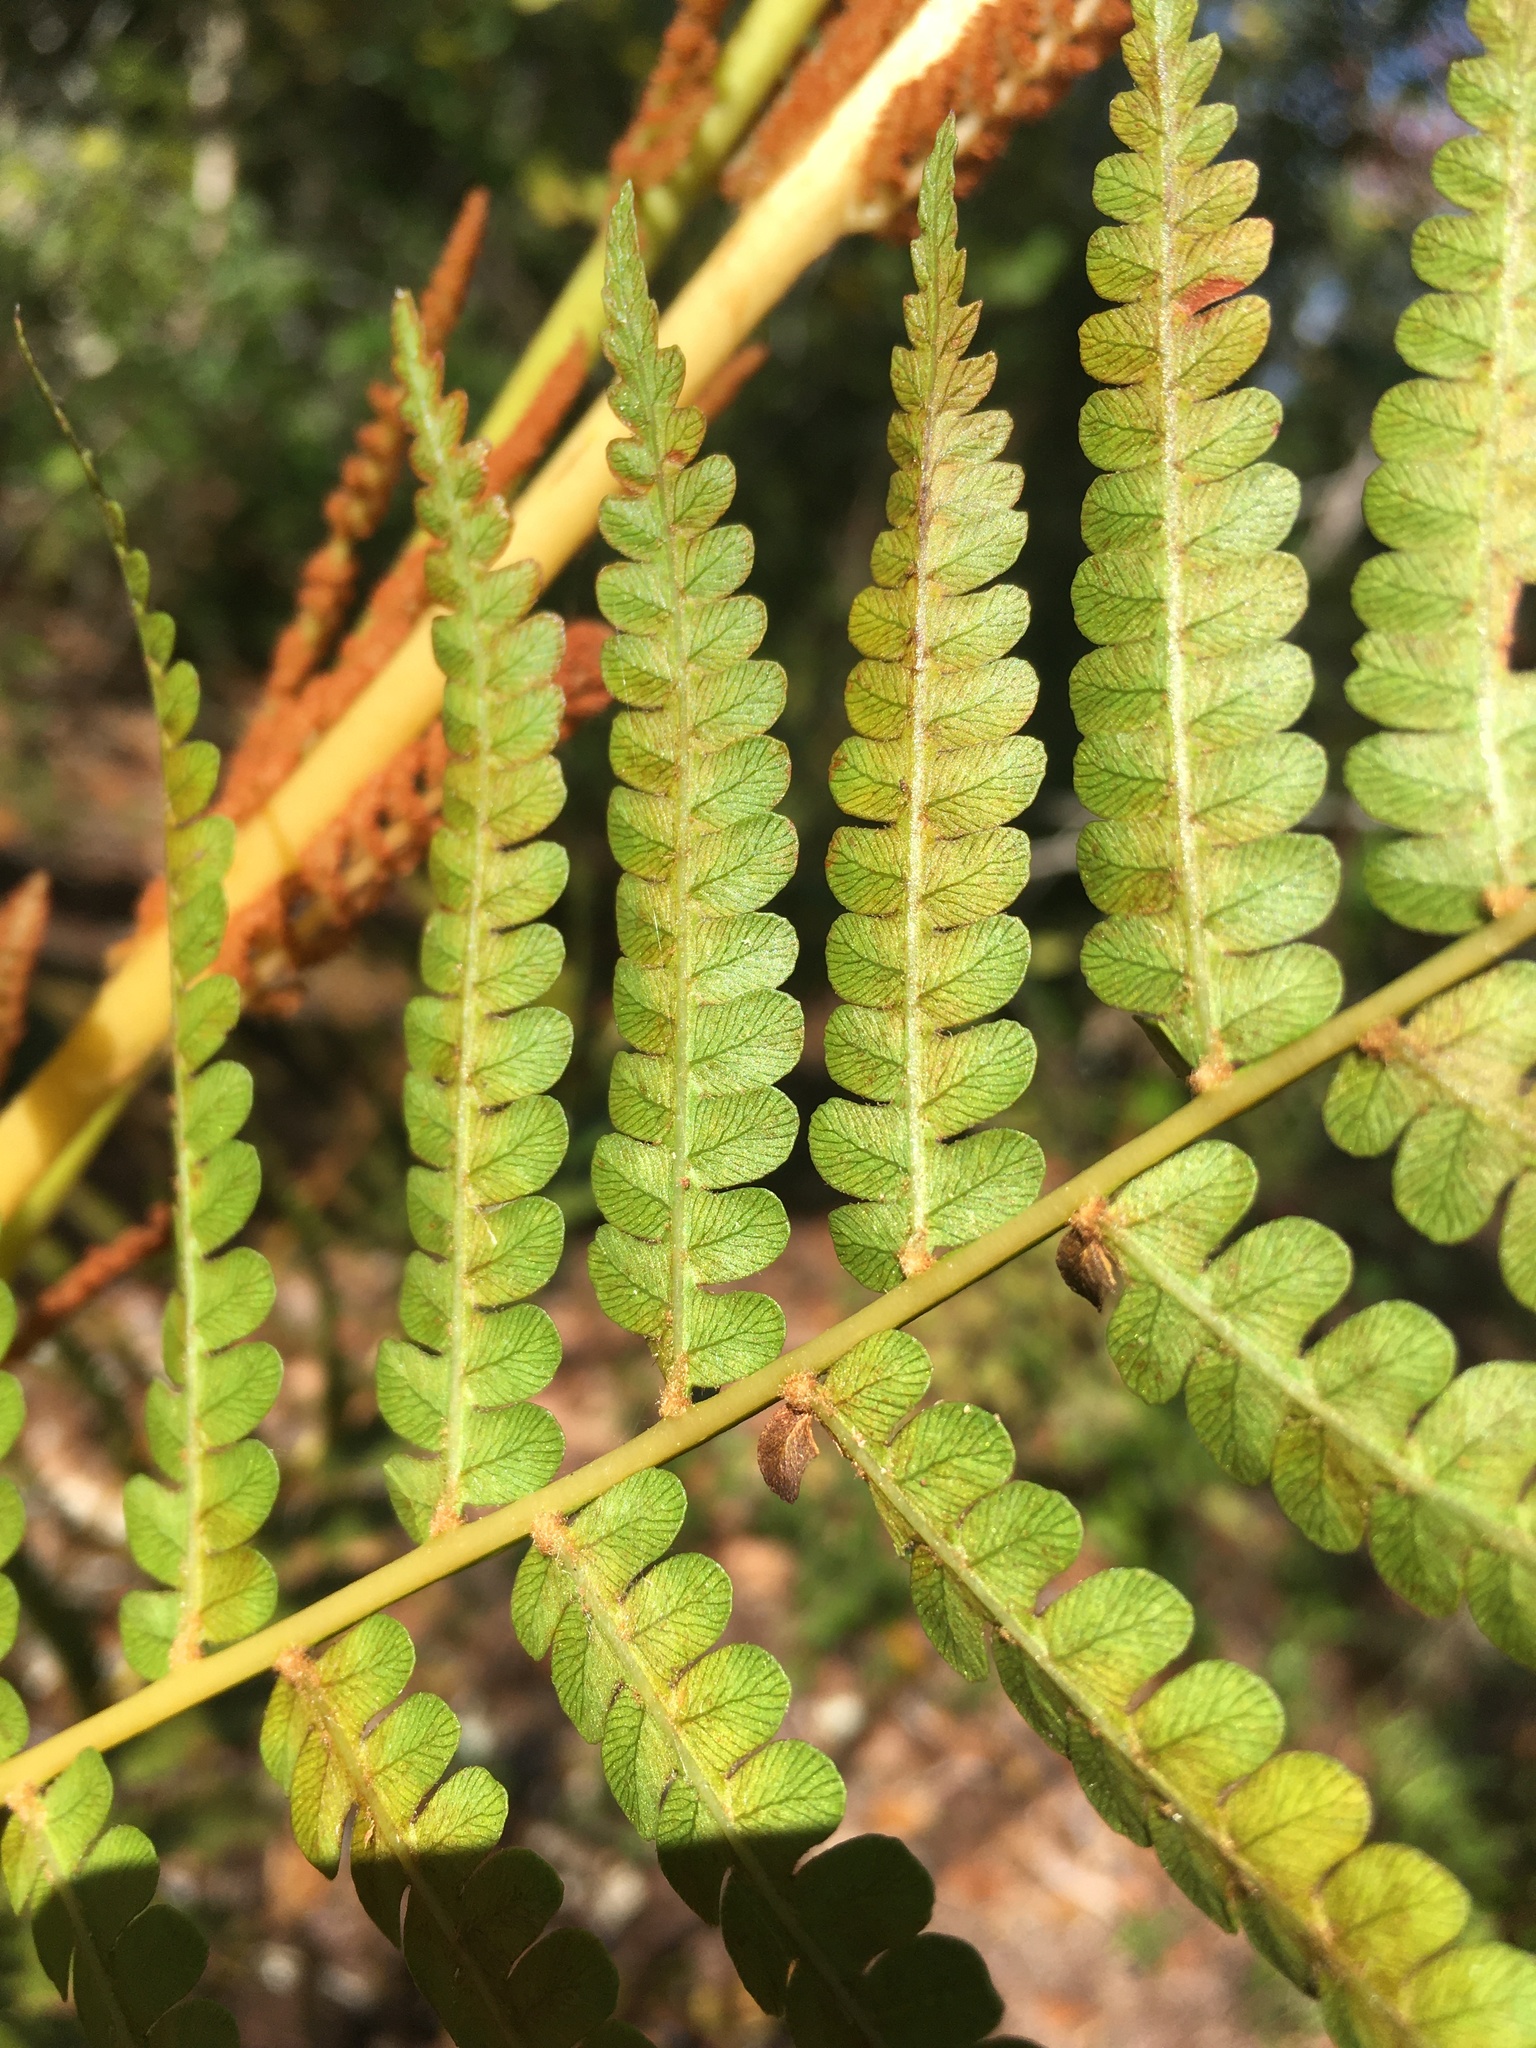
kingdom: Plantae
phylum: Tracheophyta
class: Polypodiopsida
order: Osmundales
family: Osmundaceae
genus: Osmundastrum
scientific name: Osmundastrum cinnamomeum
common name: Cinnamon fern
